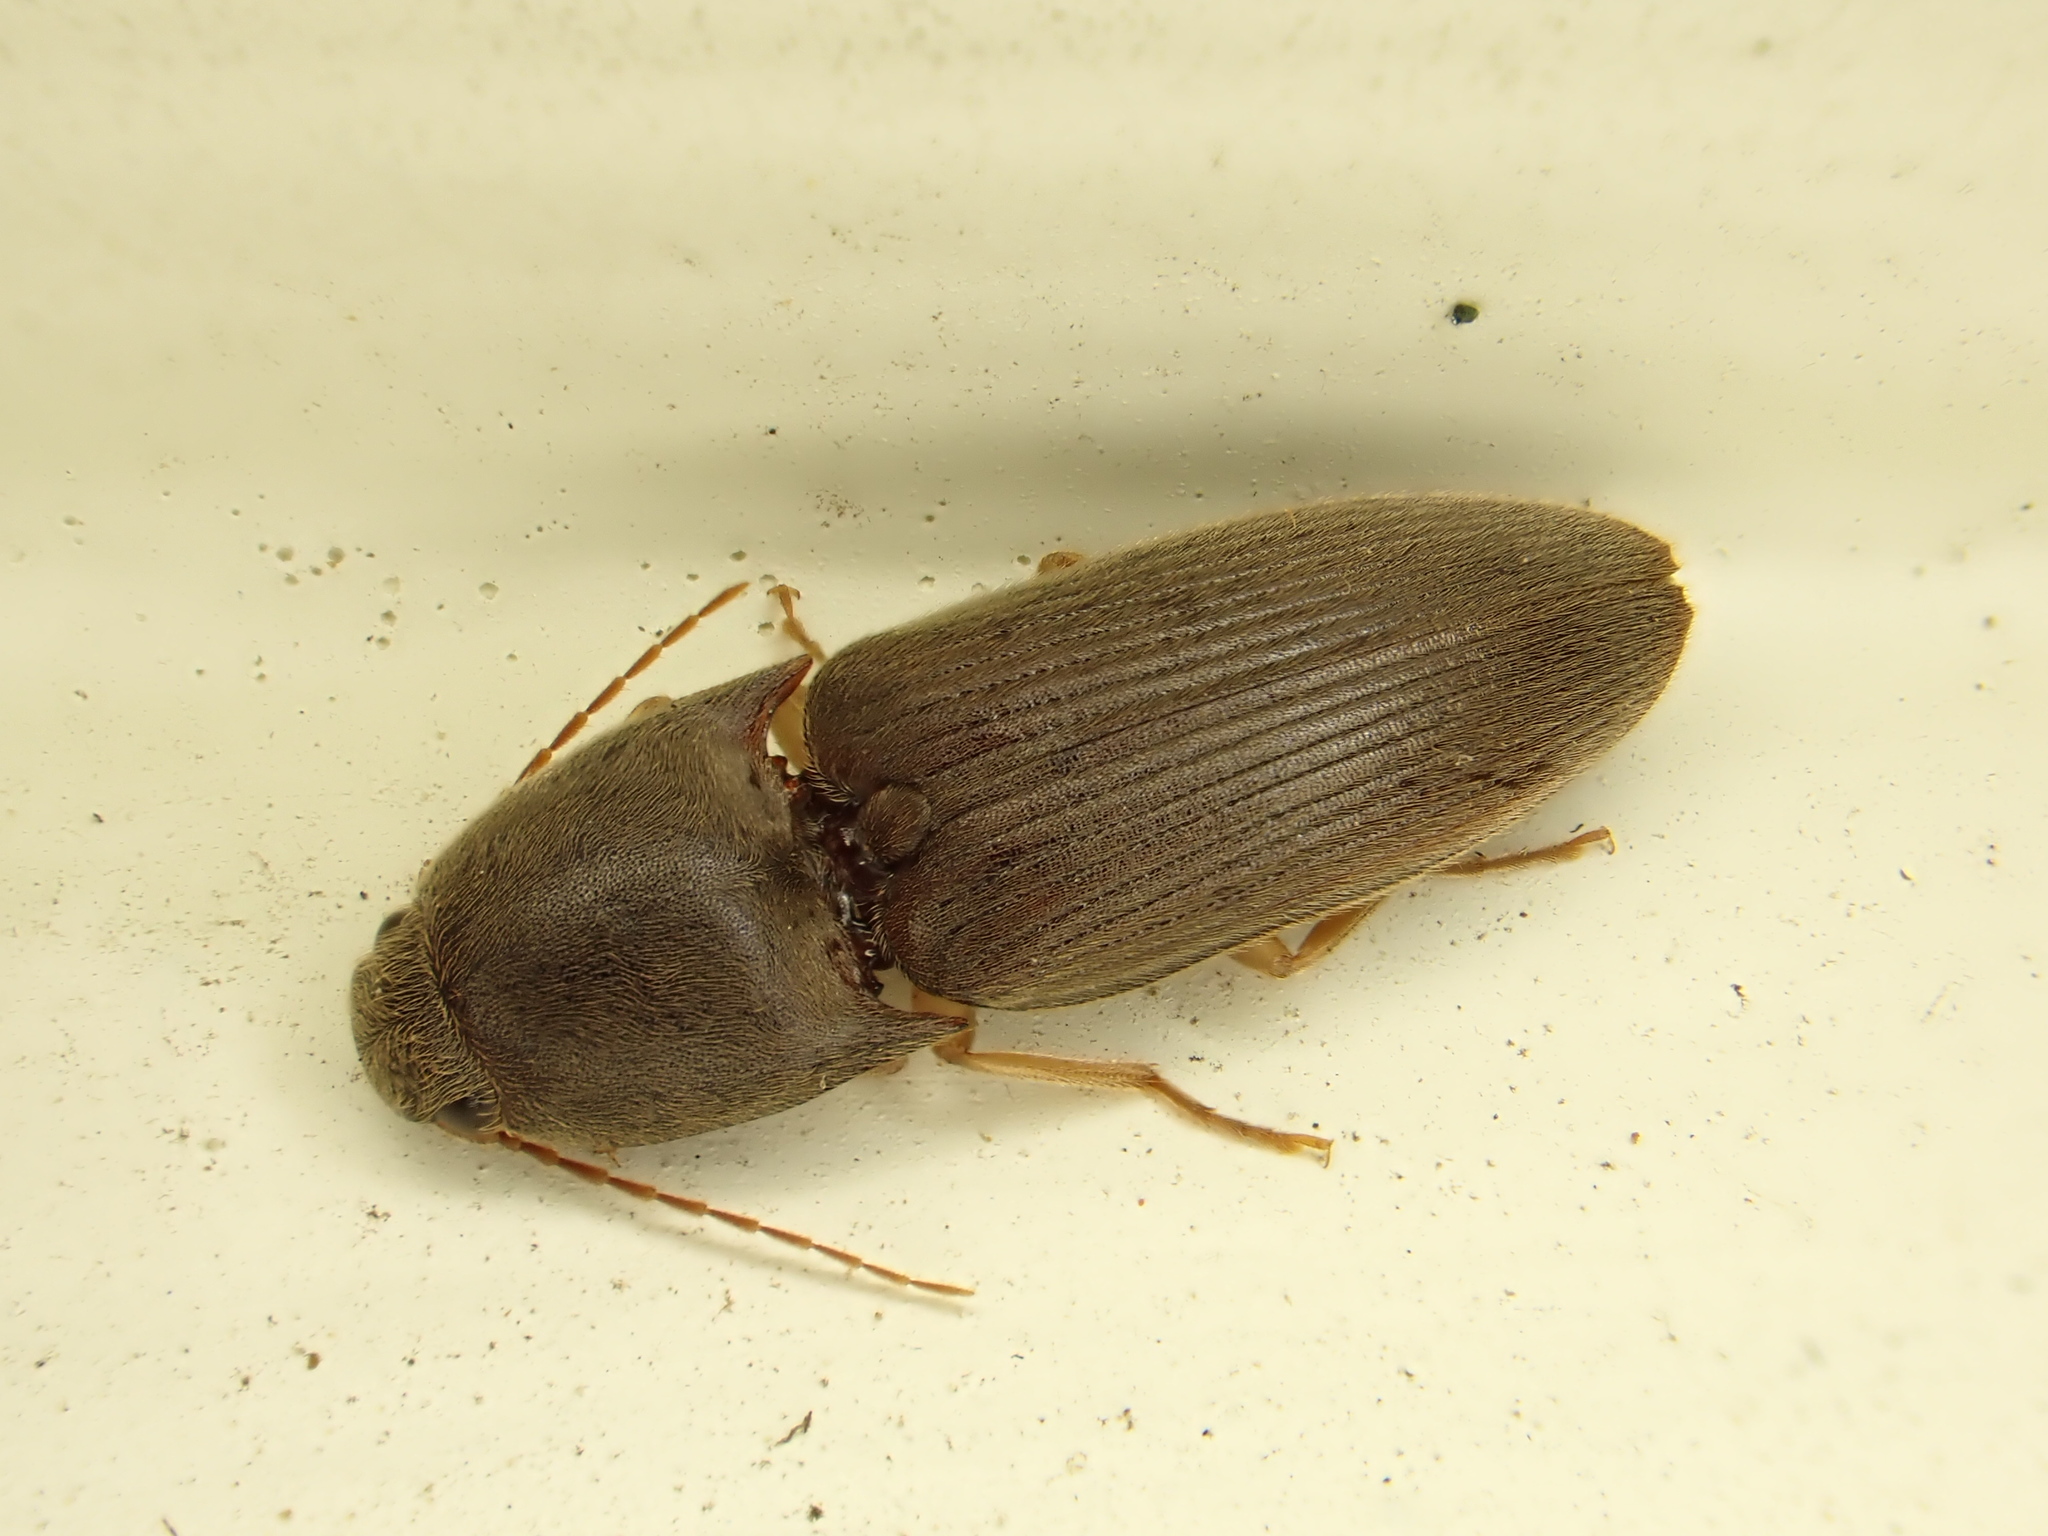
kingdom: Animalia
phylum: Arthropoda
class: Insecta
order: Coleoptera
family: Elateridae
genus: Conoderus
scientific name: Conoderus exsul
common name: Click beetle
